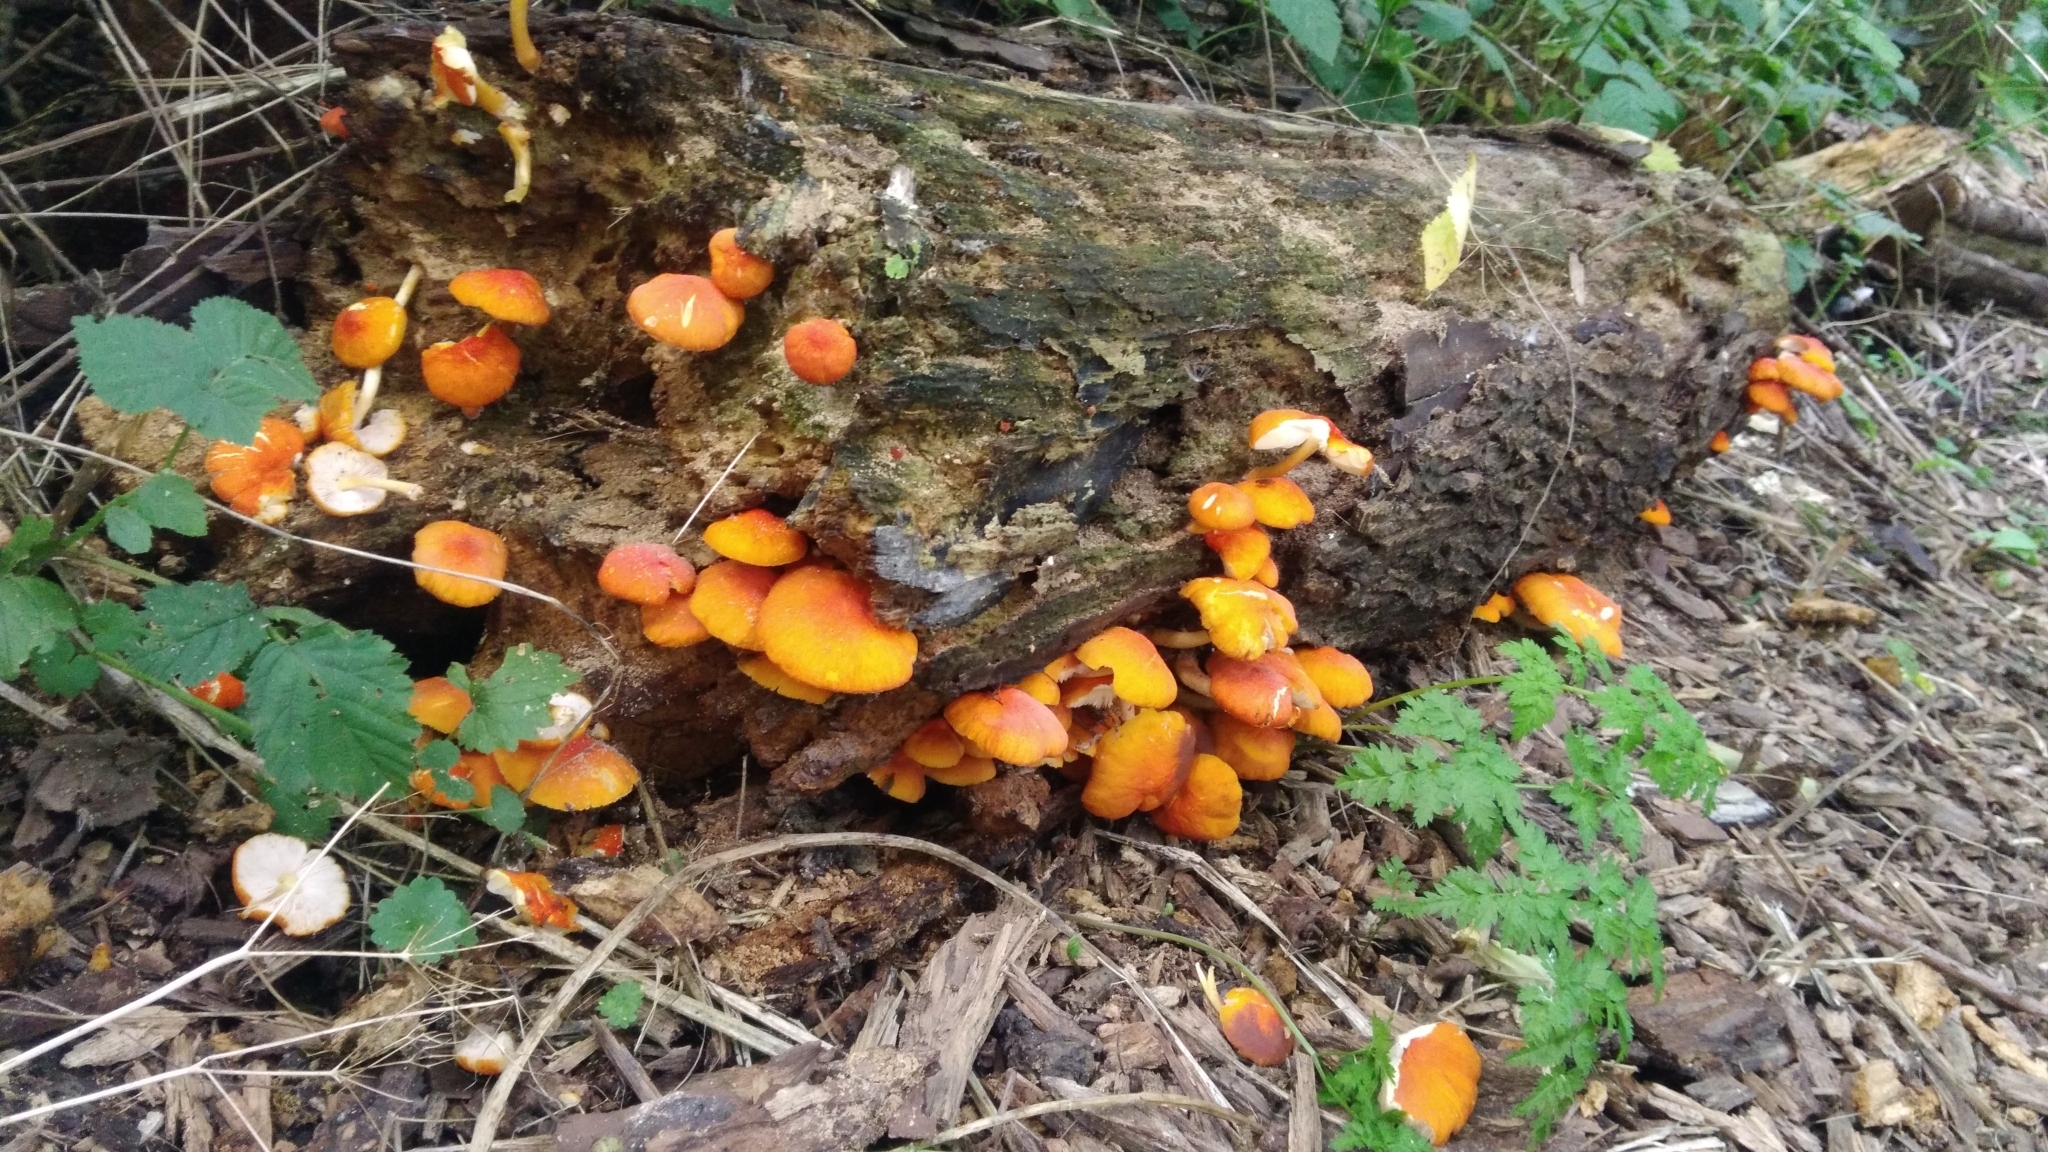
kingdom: Fungi
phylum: Basidiomycota
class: Agaricomycetes
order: Agaricales
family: Pluteaceae
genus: Pluteus
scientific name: Pluteus aurantiorugosus
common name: Flame shield
